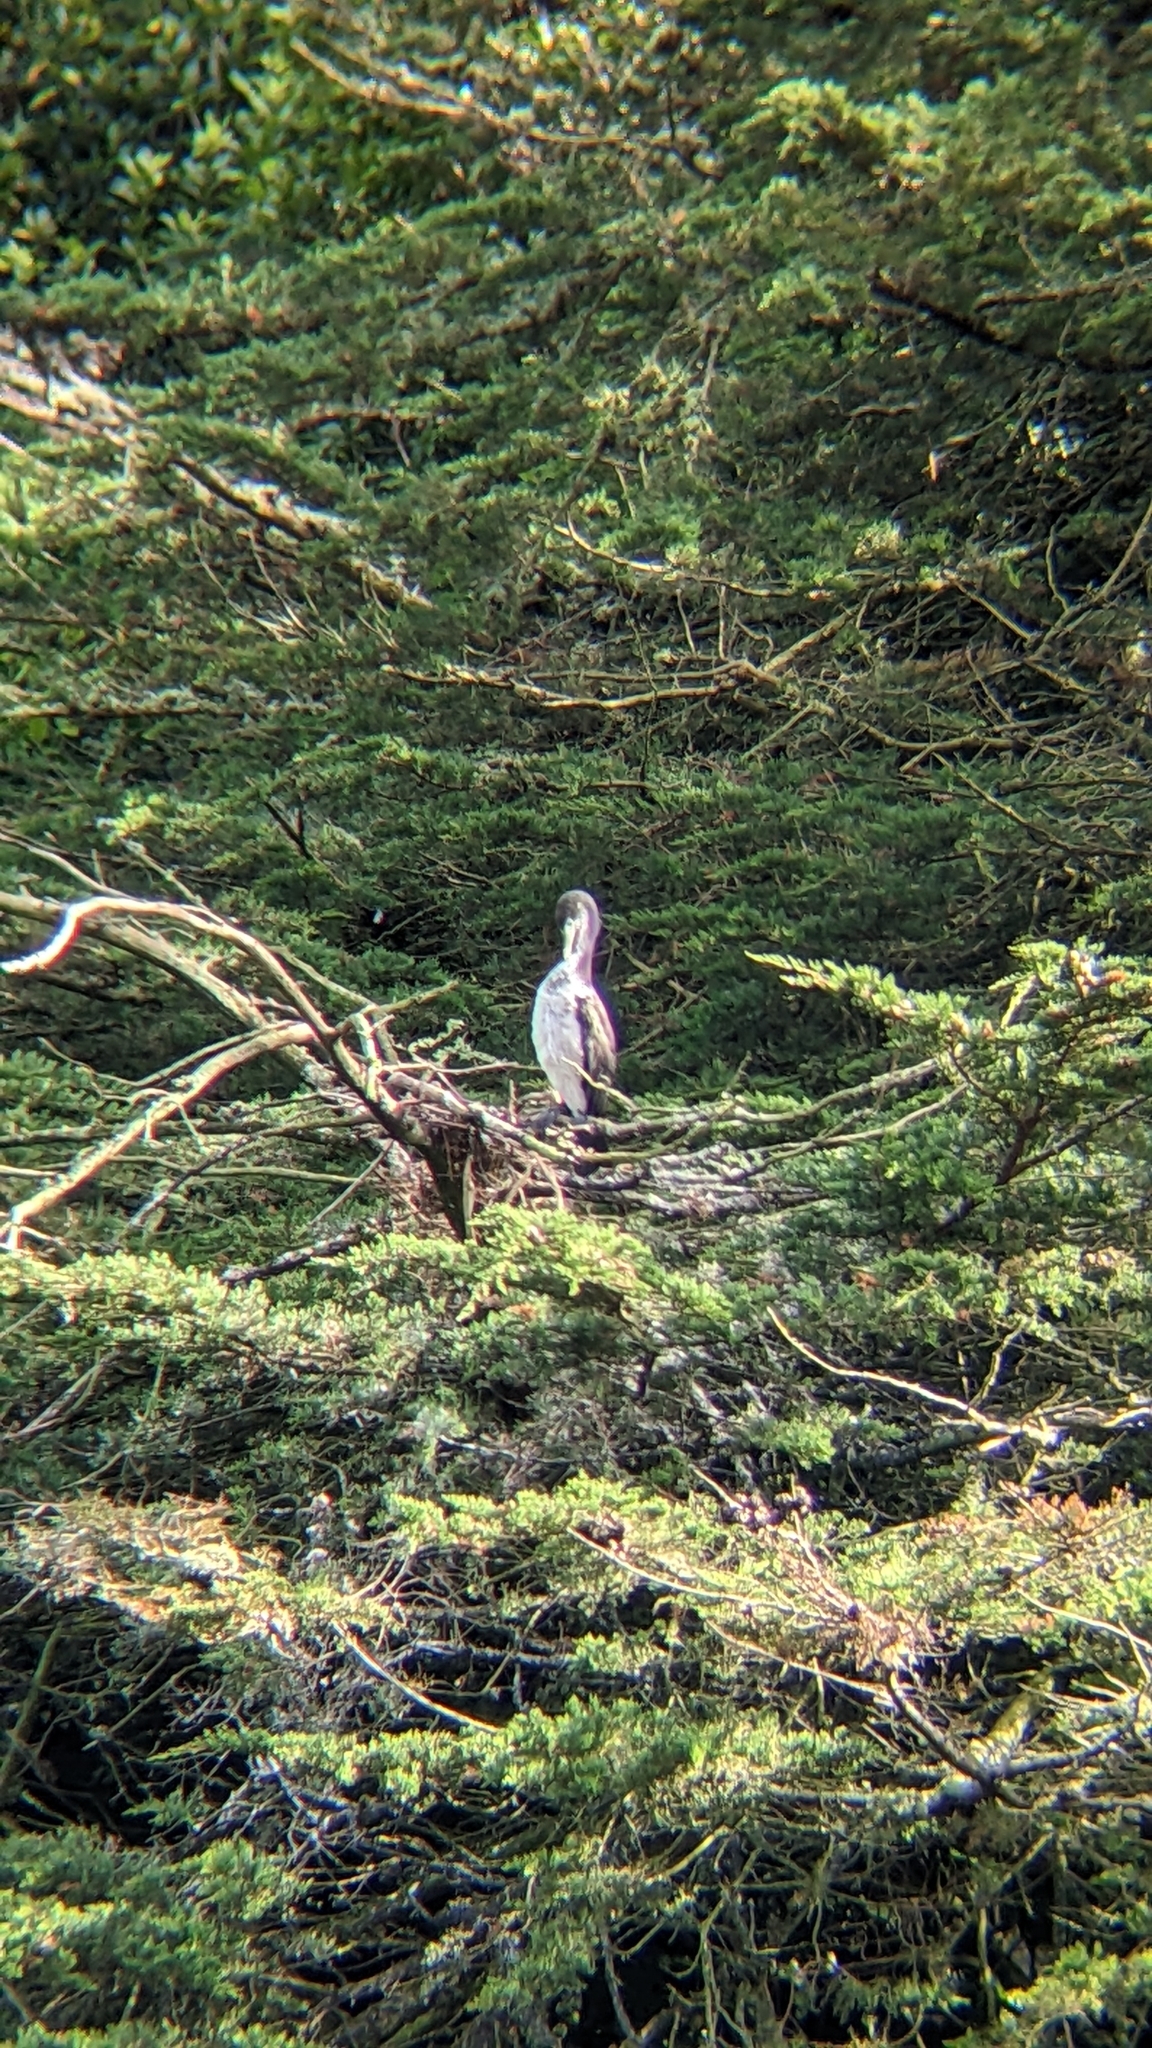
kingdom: Animalia
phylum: Chordata
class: Aves
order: Suliformes
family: Phalacrocoracidae
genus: Phalacrocorax
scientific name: Phalacrocorax varius
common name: Pied cormorant
